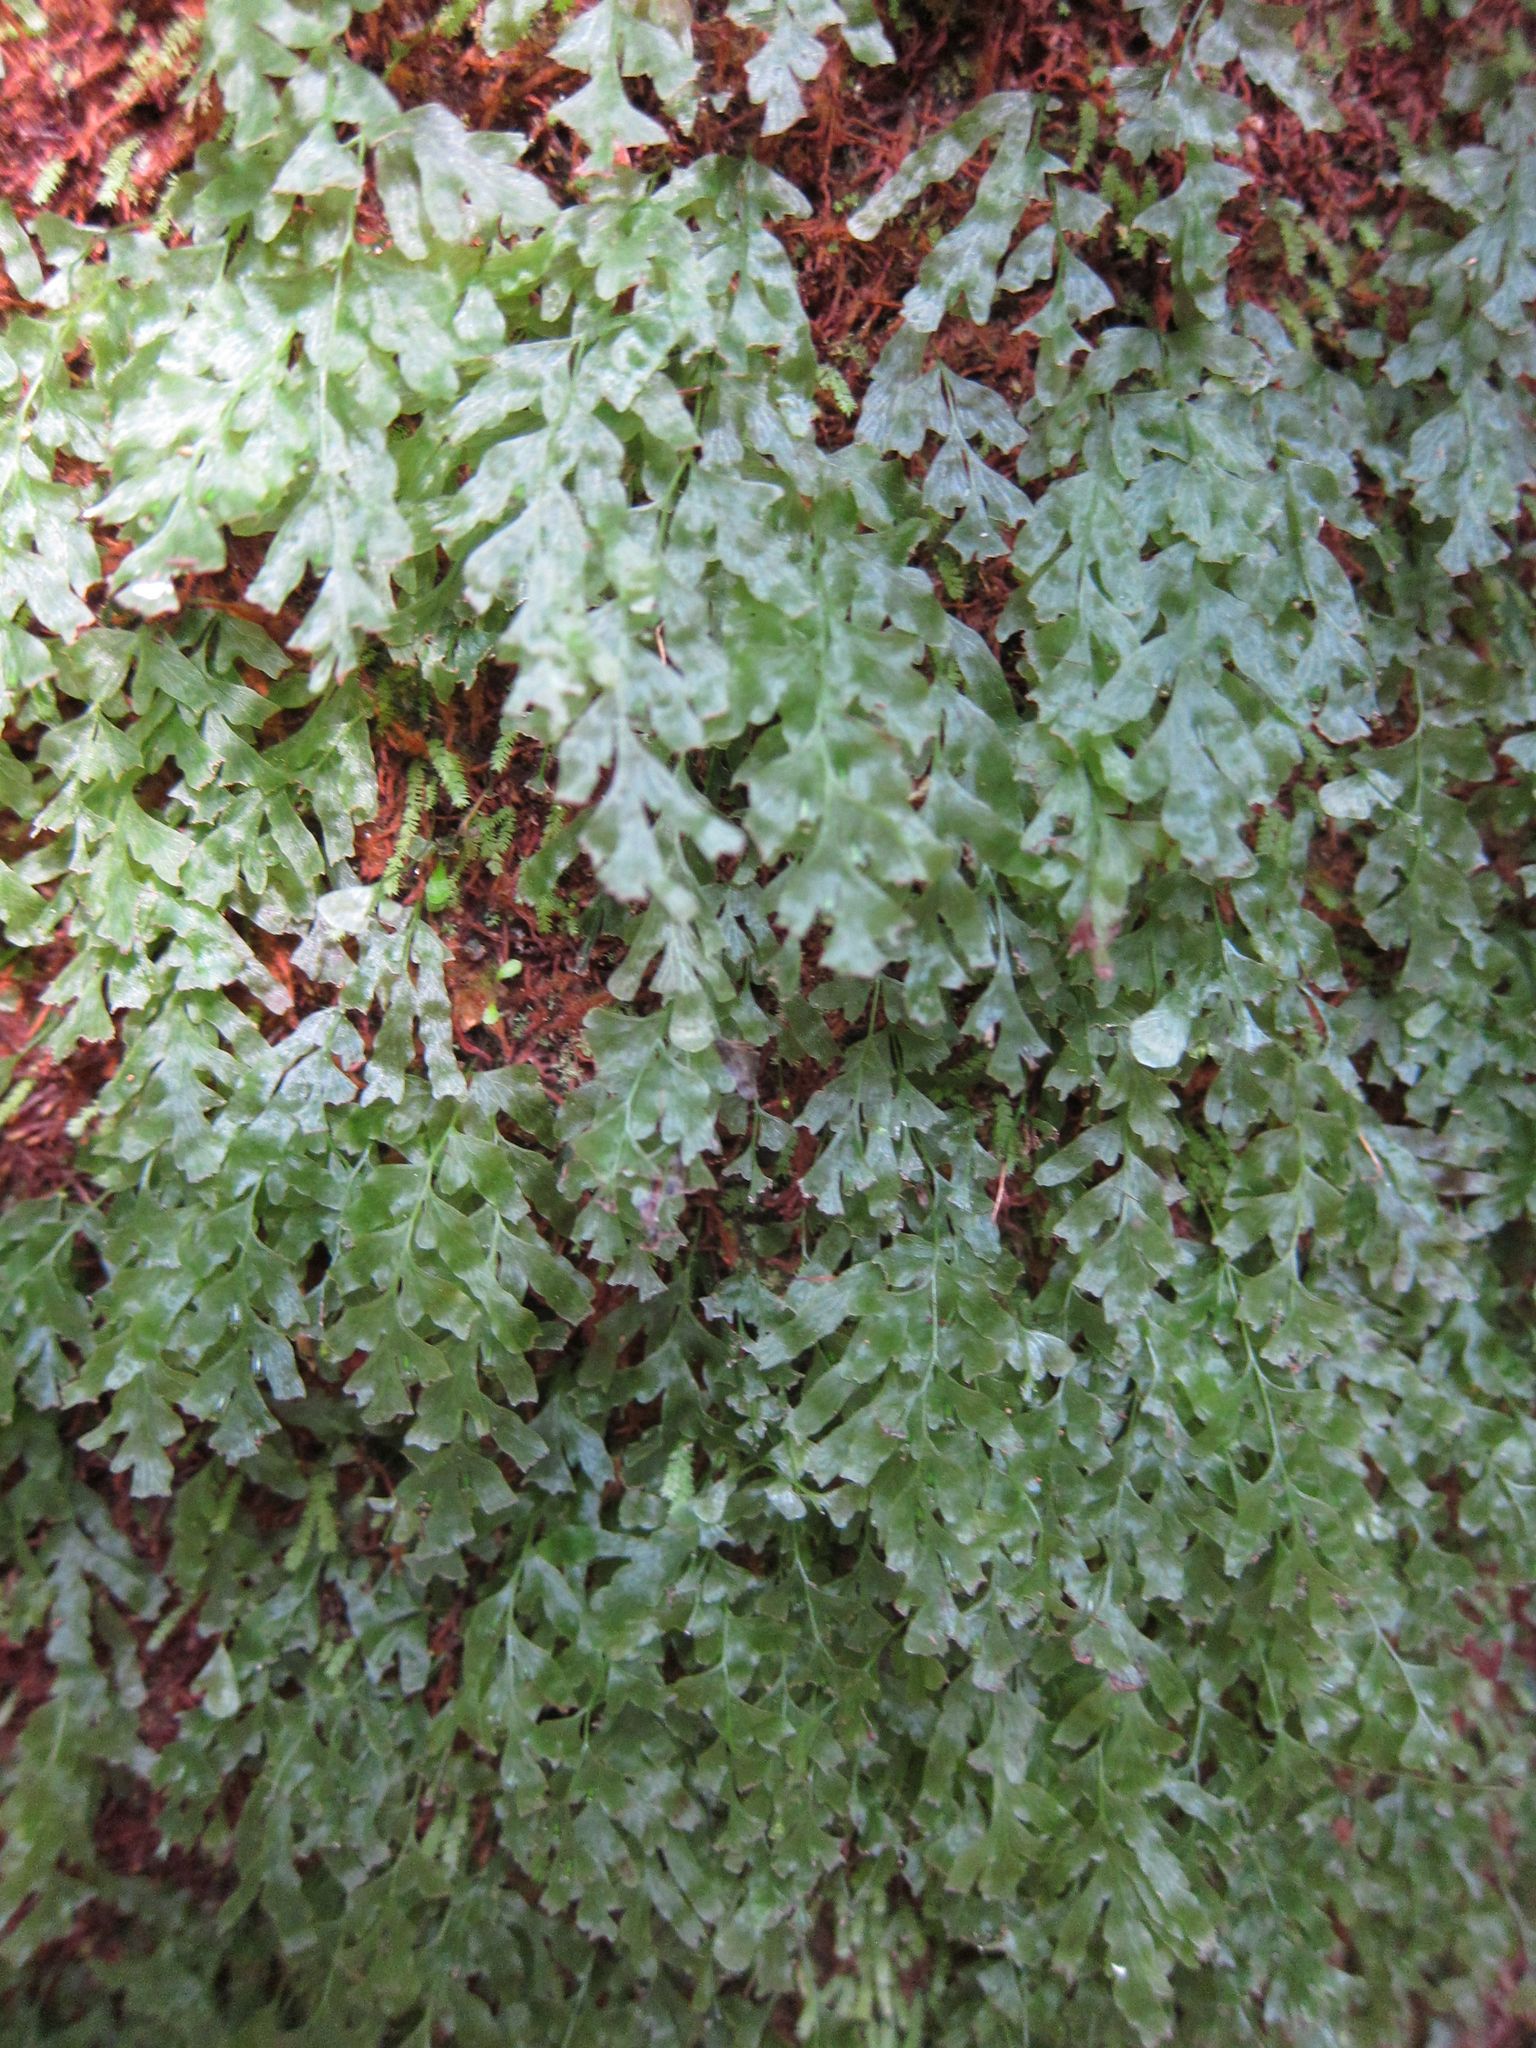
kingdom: Plantae
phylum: Tracheophyta
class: Polypodiopsida
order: Hymenophyllales
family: Hymenophyllaceae
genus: Polyphlebium
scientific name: Polyphlebium venosum
